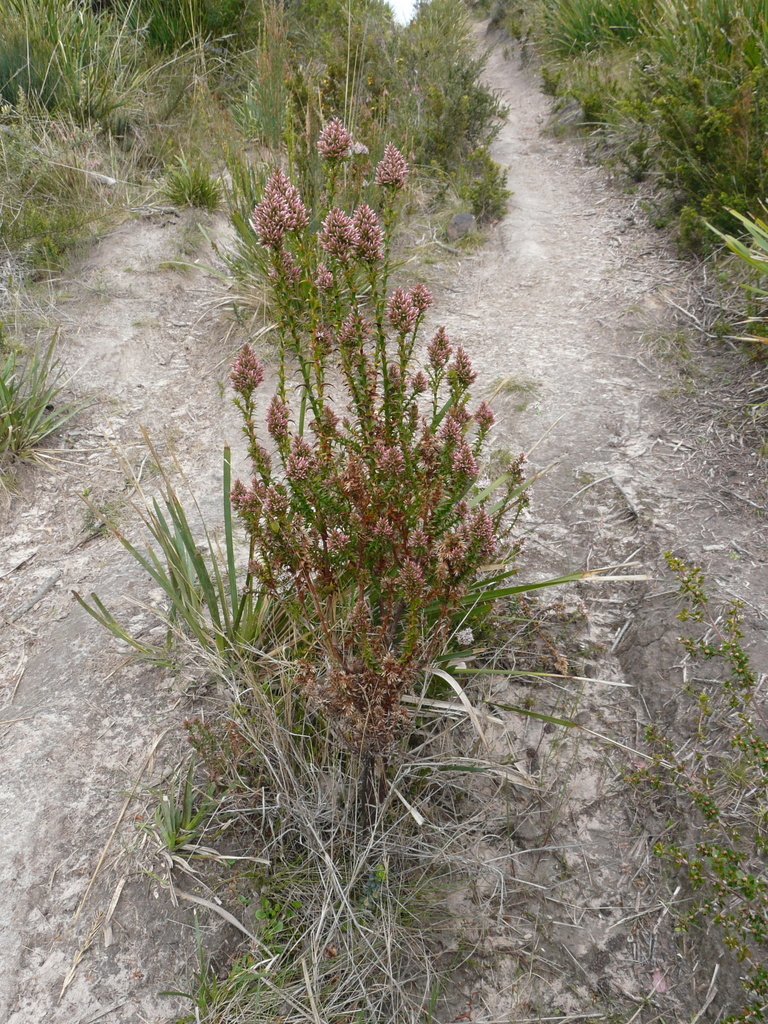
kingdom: Plantae
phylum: Tracheophyta
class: Magnoliopsida
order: Ericales
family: Ericaceae
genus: Sprengelia
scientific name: Sprengelia incarnata
